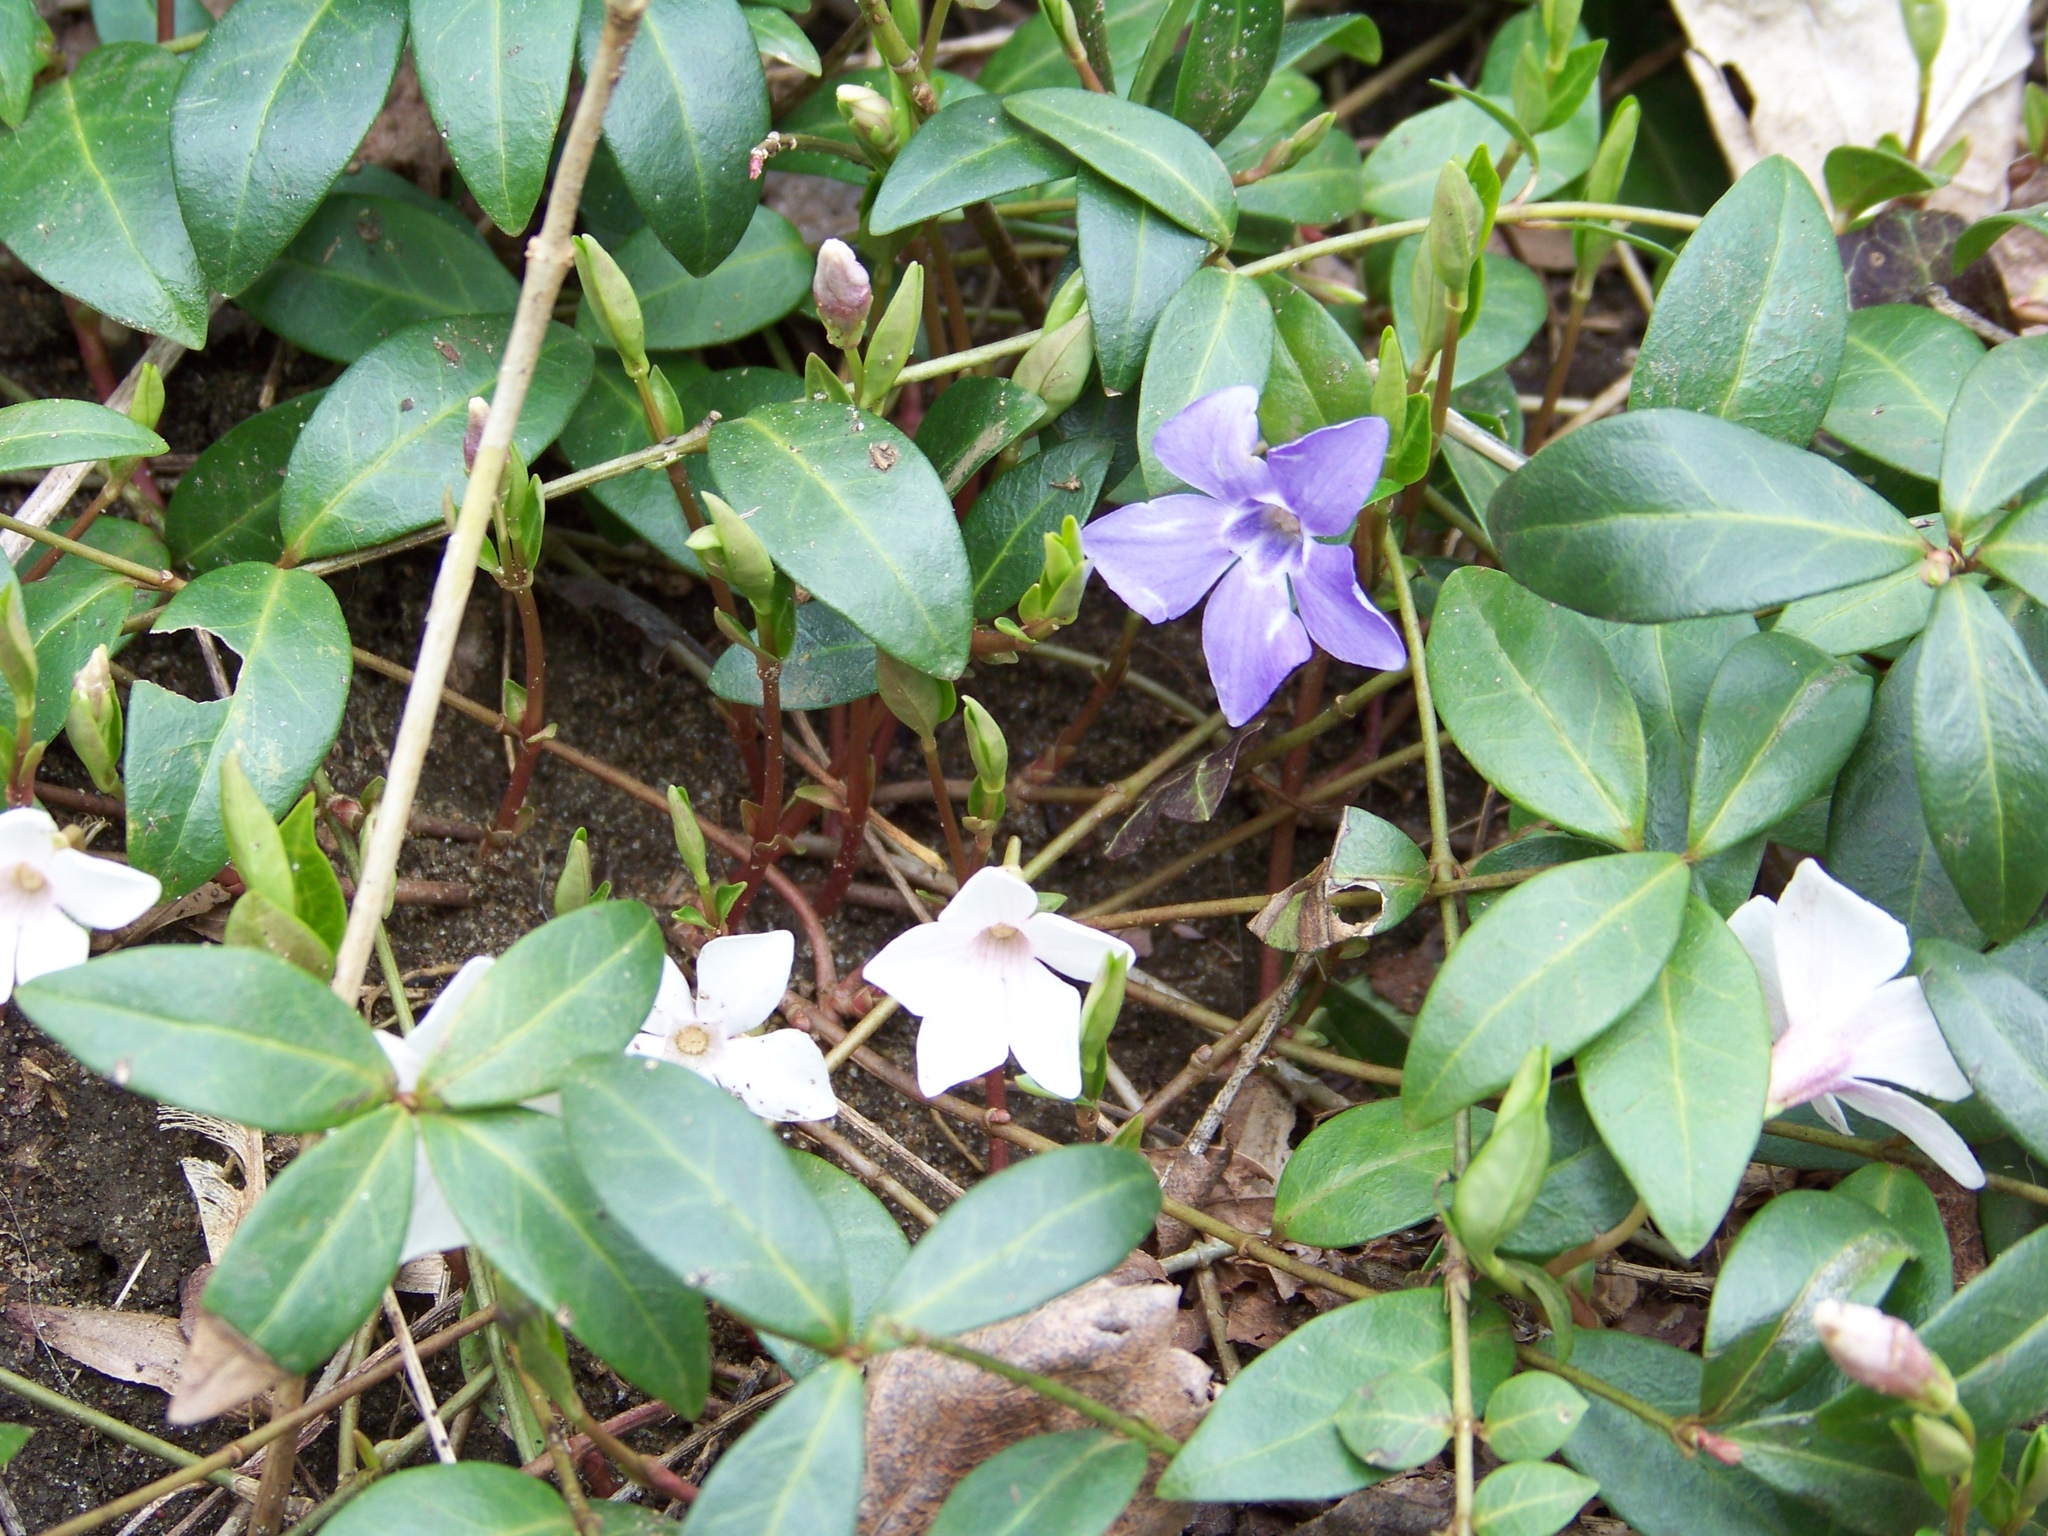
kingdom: Plantae
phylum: Tracheophyta
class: Magnoliopsida
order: Gentianales
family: Apocynaceae
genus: Vinca
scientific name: Vinca minor
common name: Lesser periwinkle
